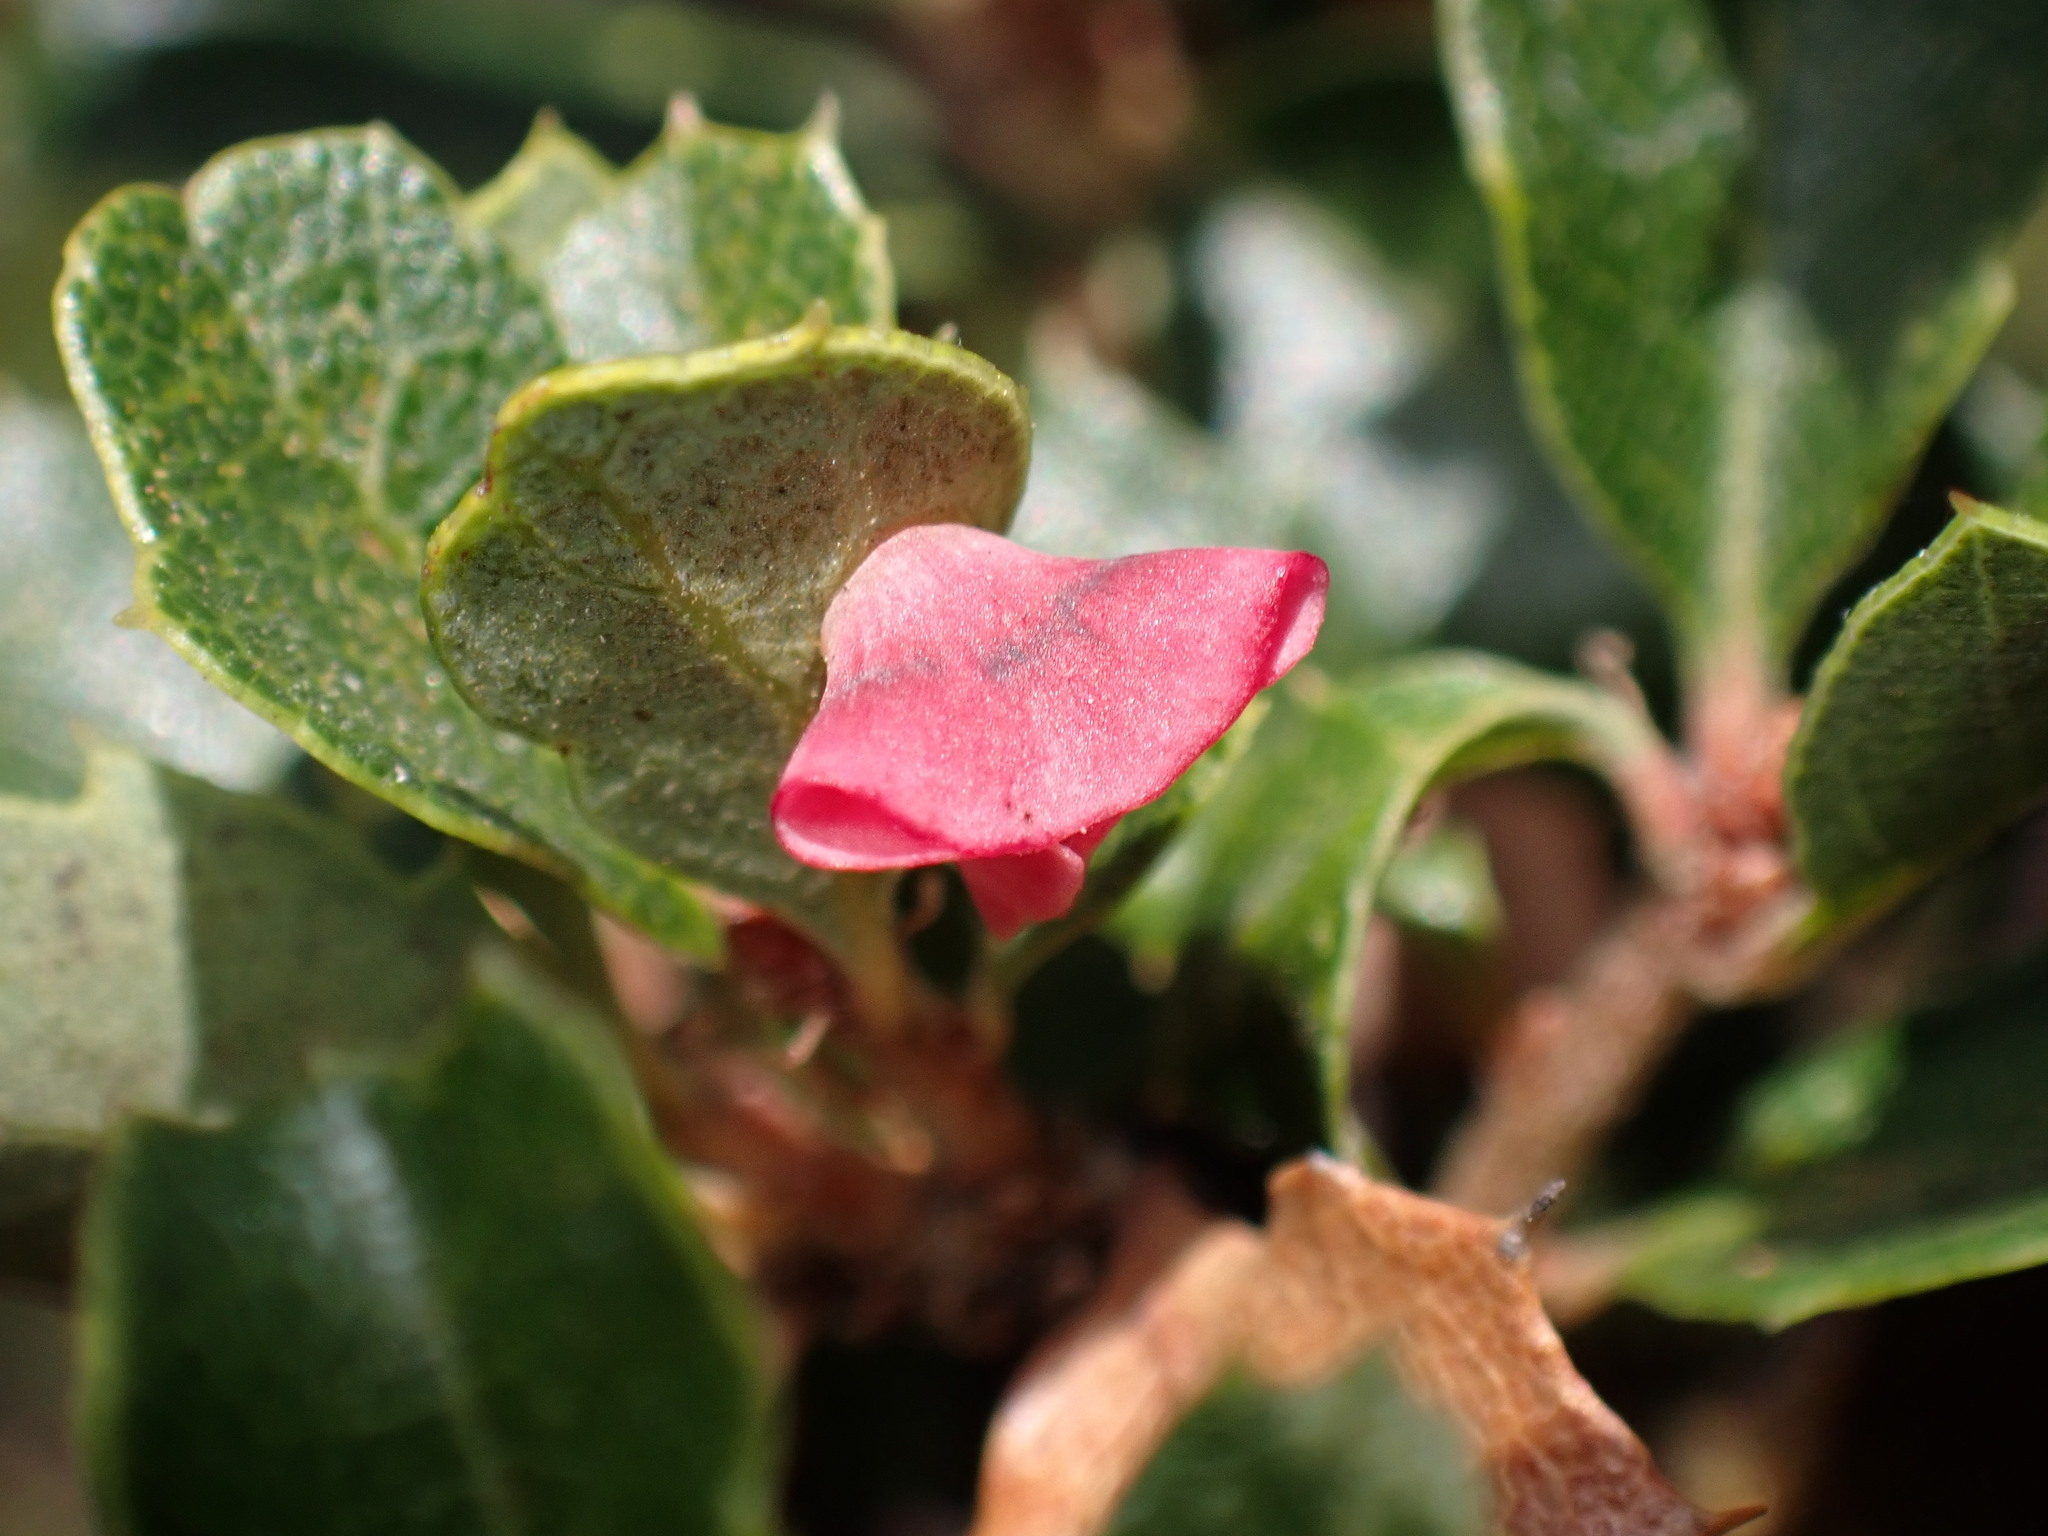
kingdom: Animalia
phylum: Arthropoda
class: Insecta
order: Hymenoptera
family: Cynipidae
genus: Andricus
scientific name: Andricus
